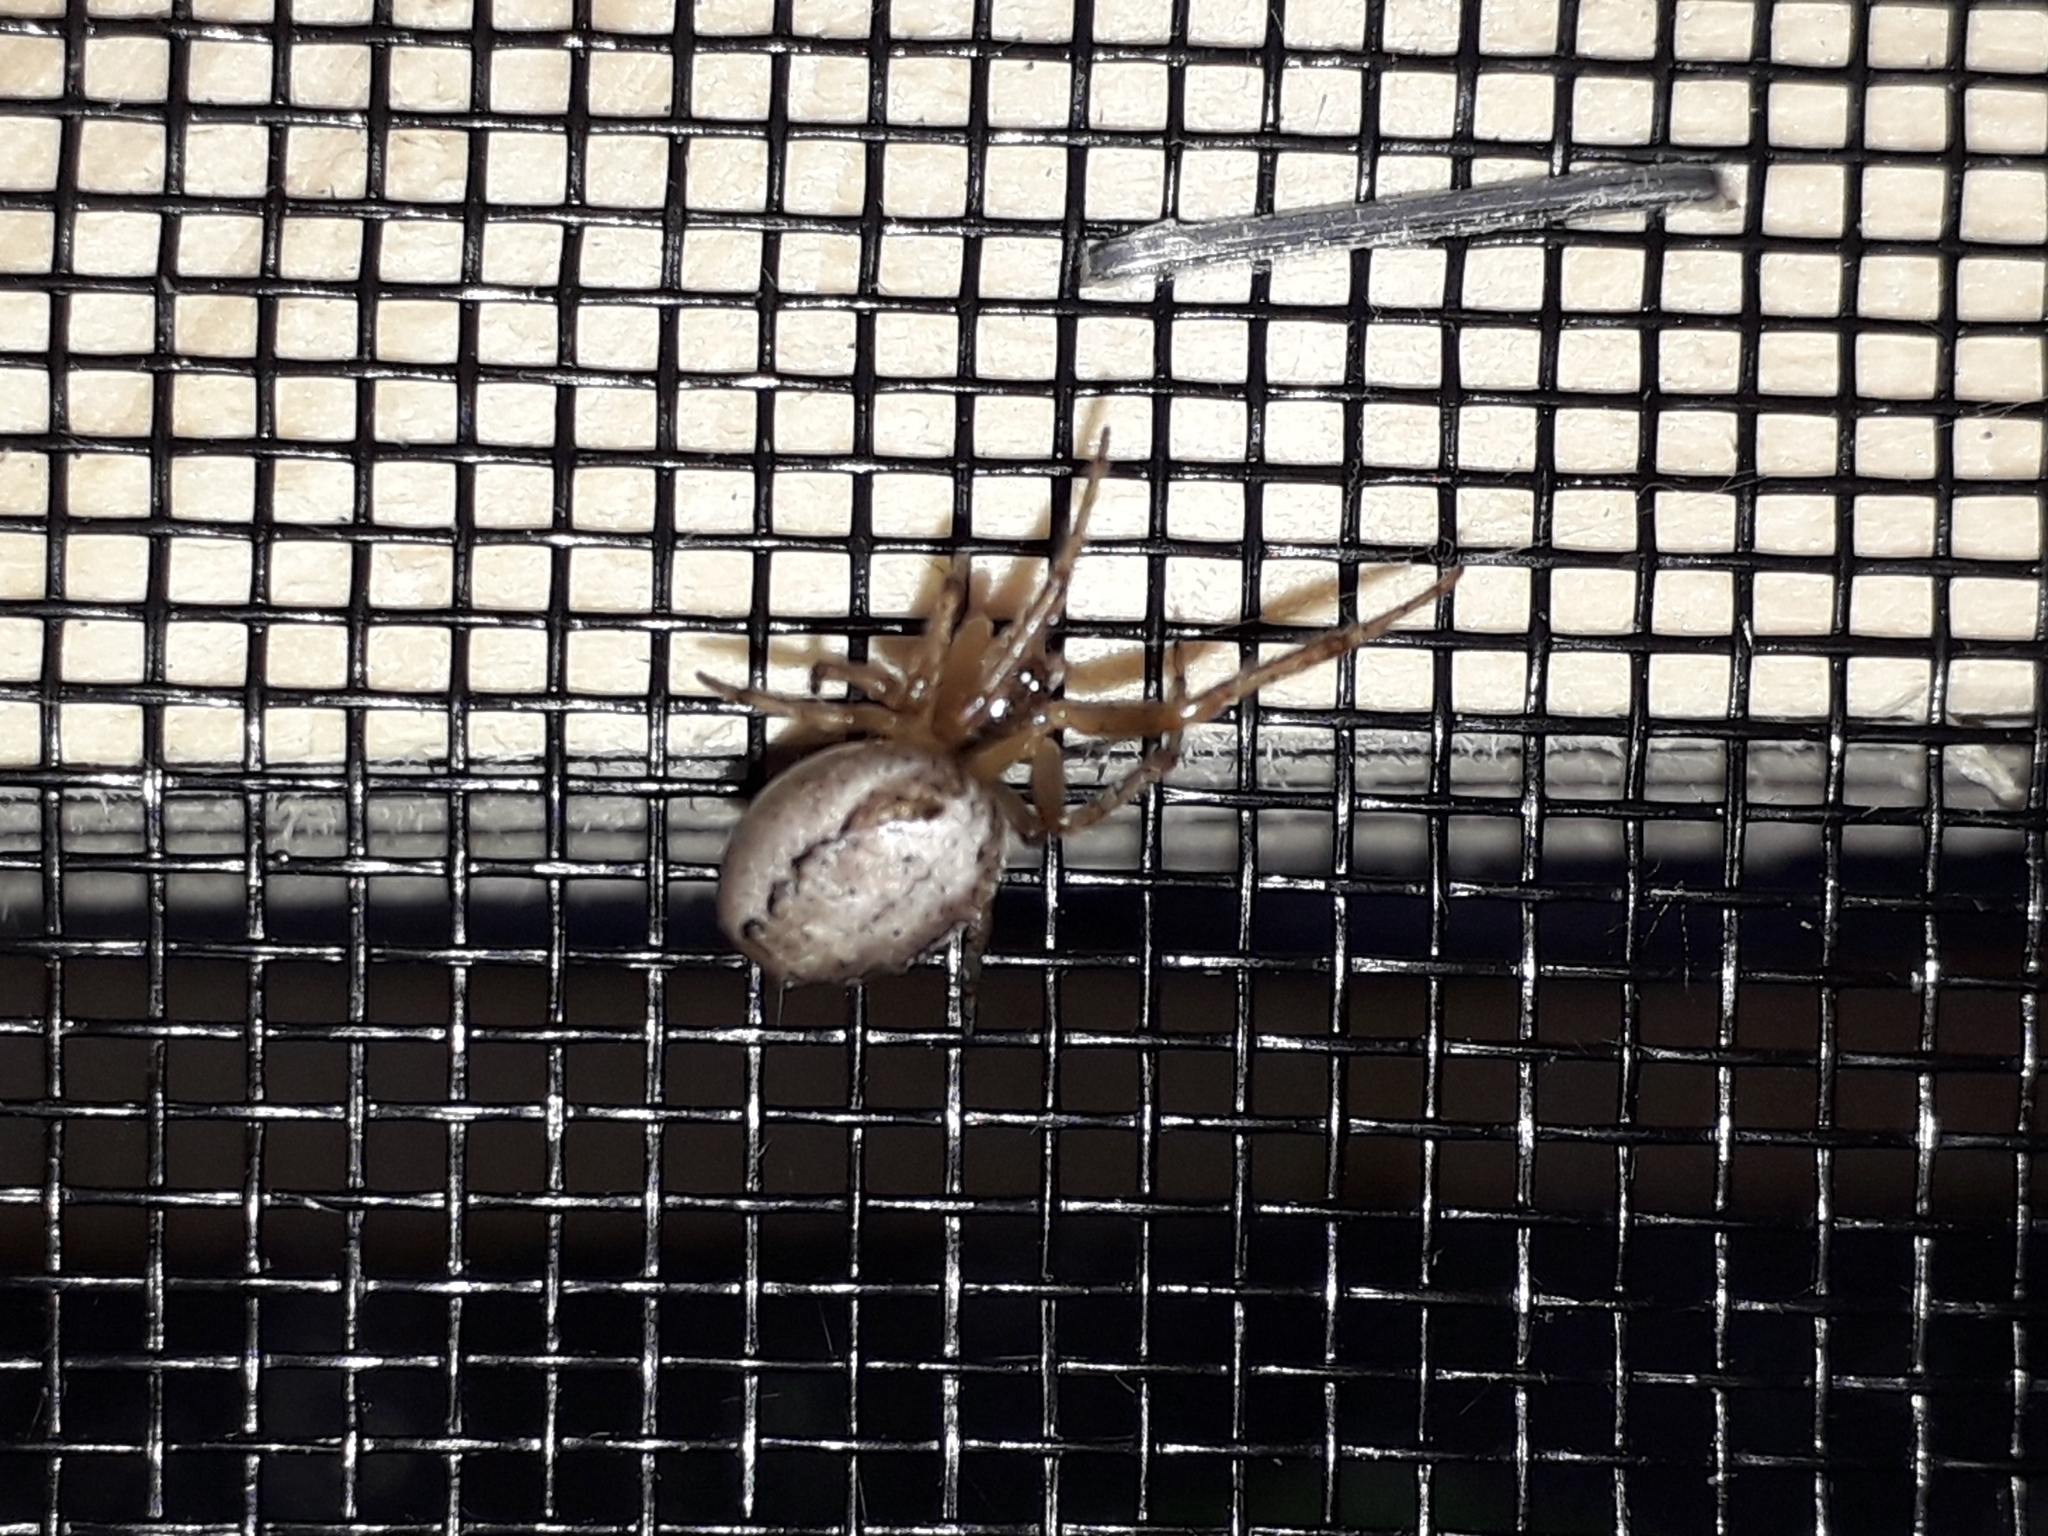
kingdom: Animalia
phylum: Arthropoda
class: Arachnida
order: Araneae
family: Araneidae
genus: Zygiella
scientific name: Zygiella x-notata
